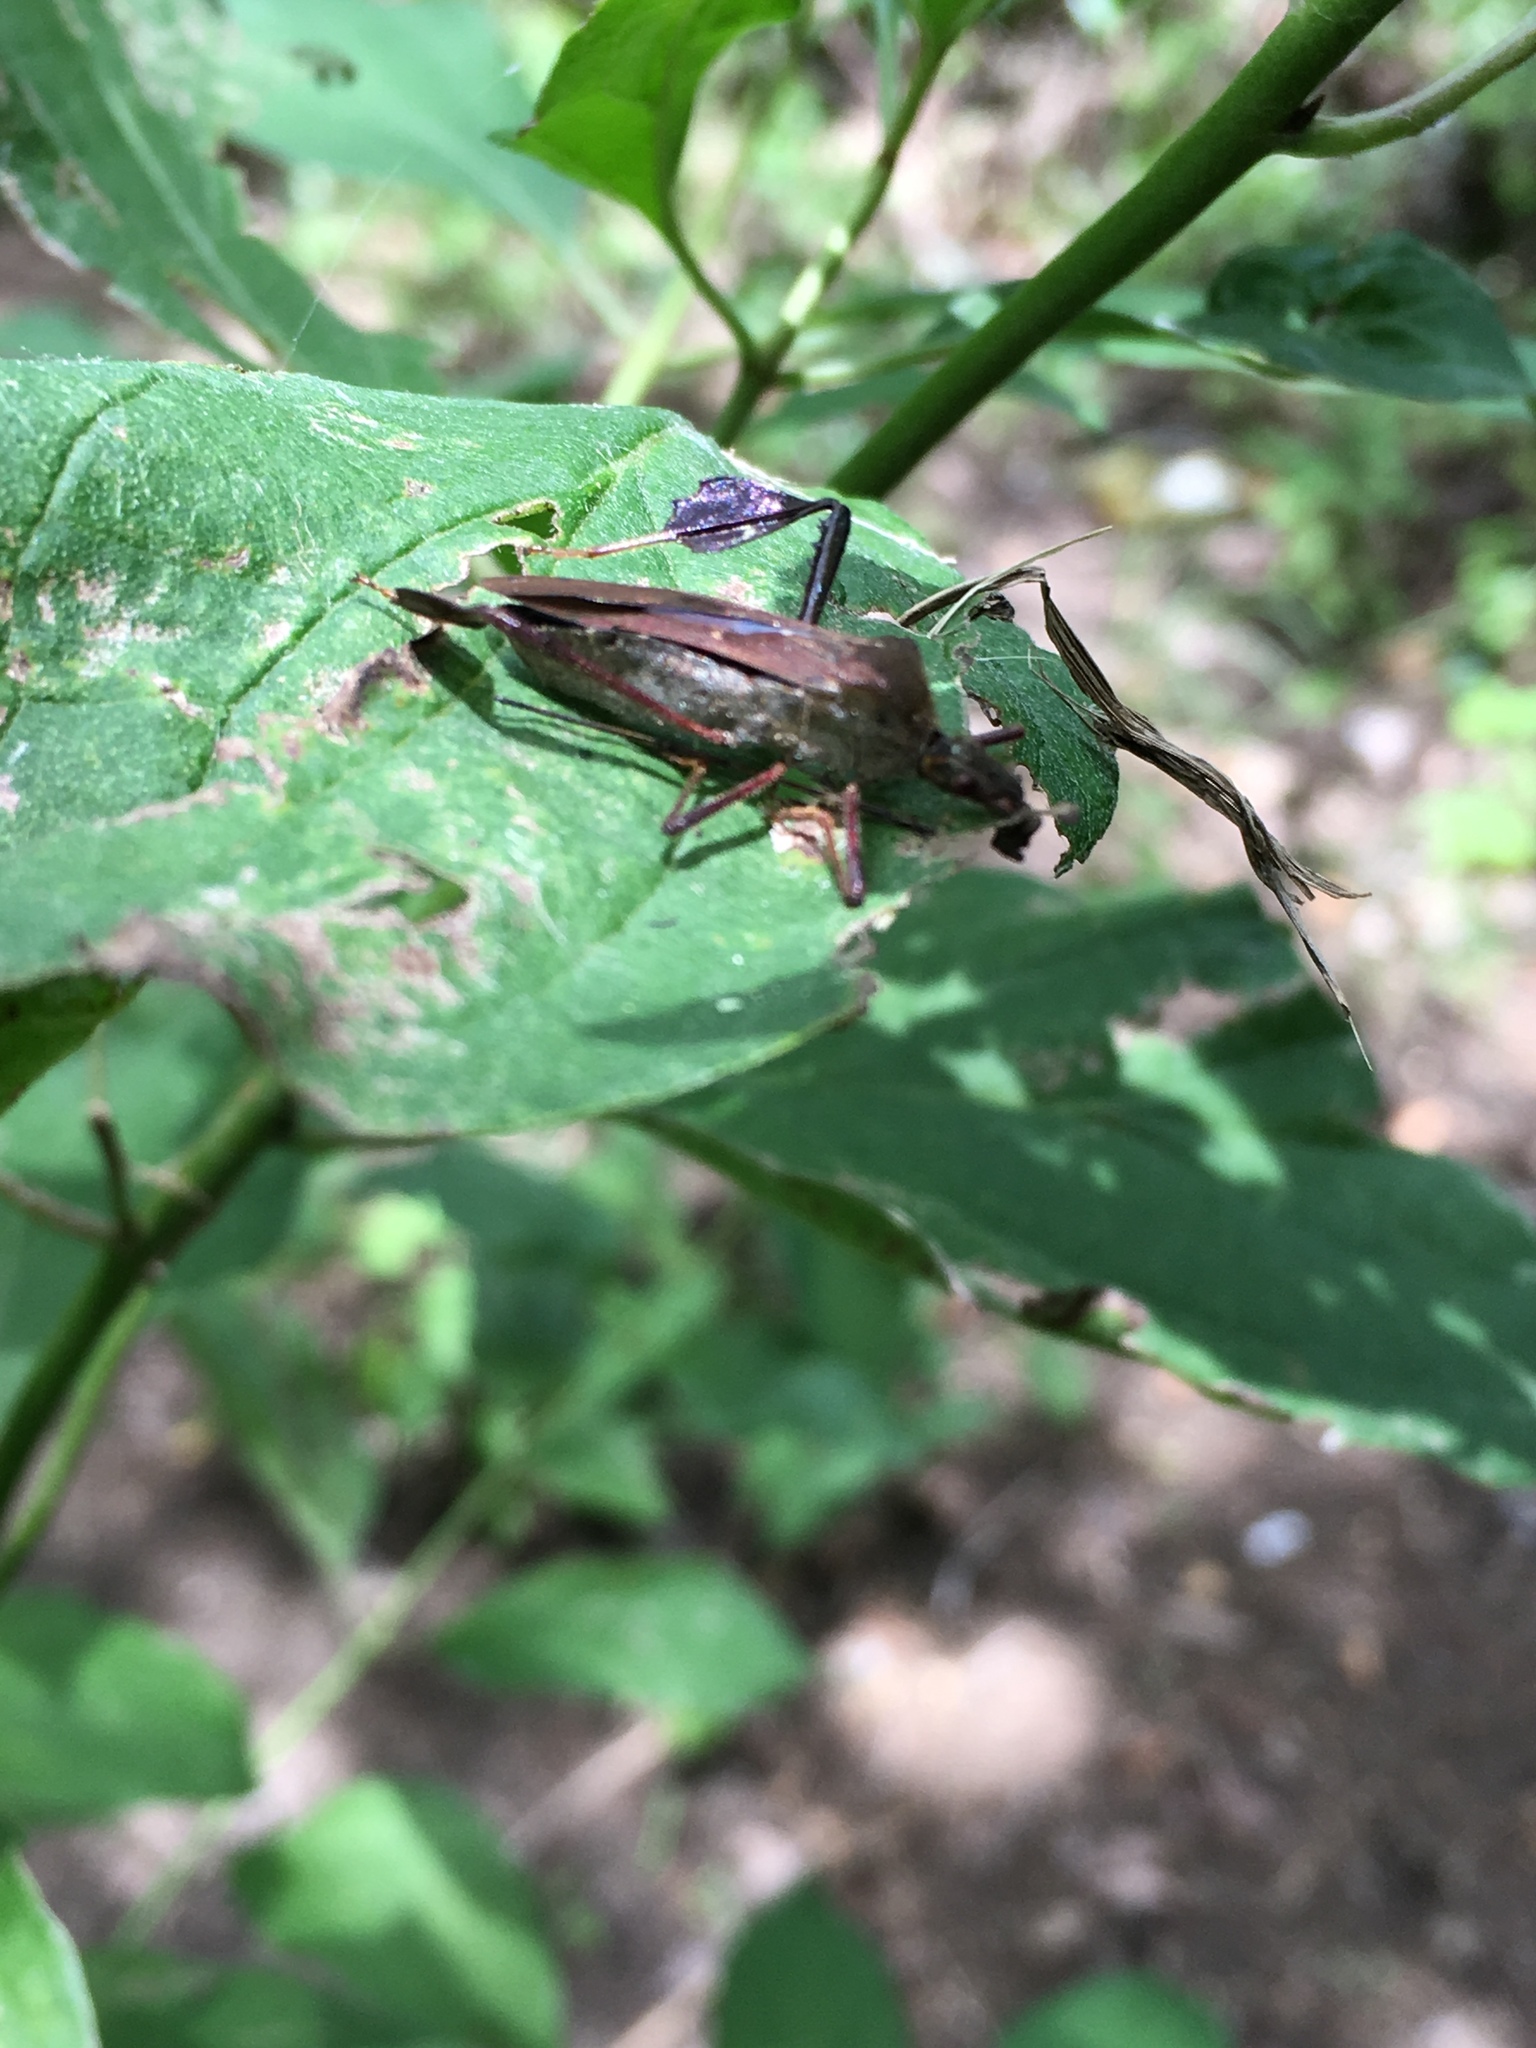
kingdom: Animalia
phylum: Arthropoda
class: Insecta
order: Hemiptera
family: Coreidae
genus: Leptoglossus
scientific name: Leptoglossus oppositus
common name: Northern leaf-footed bug
